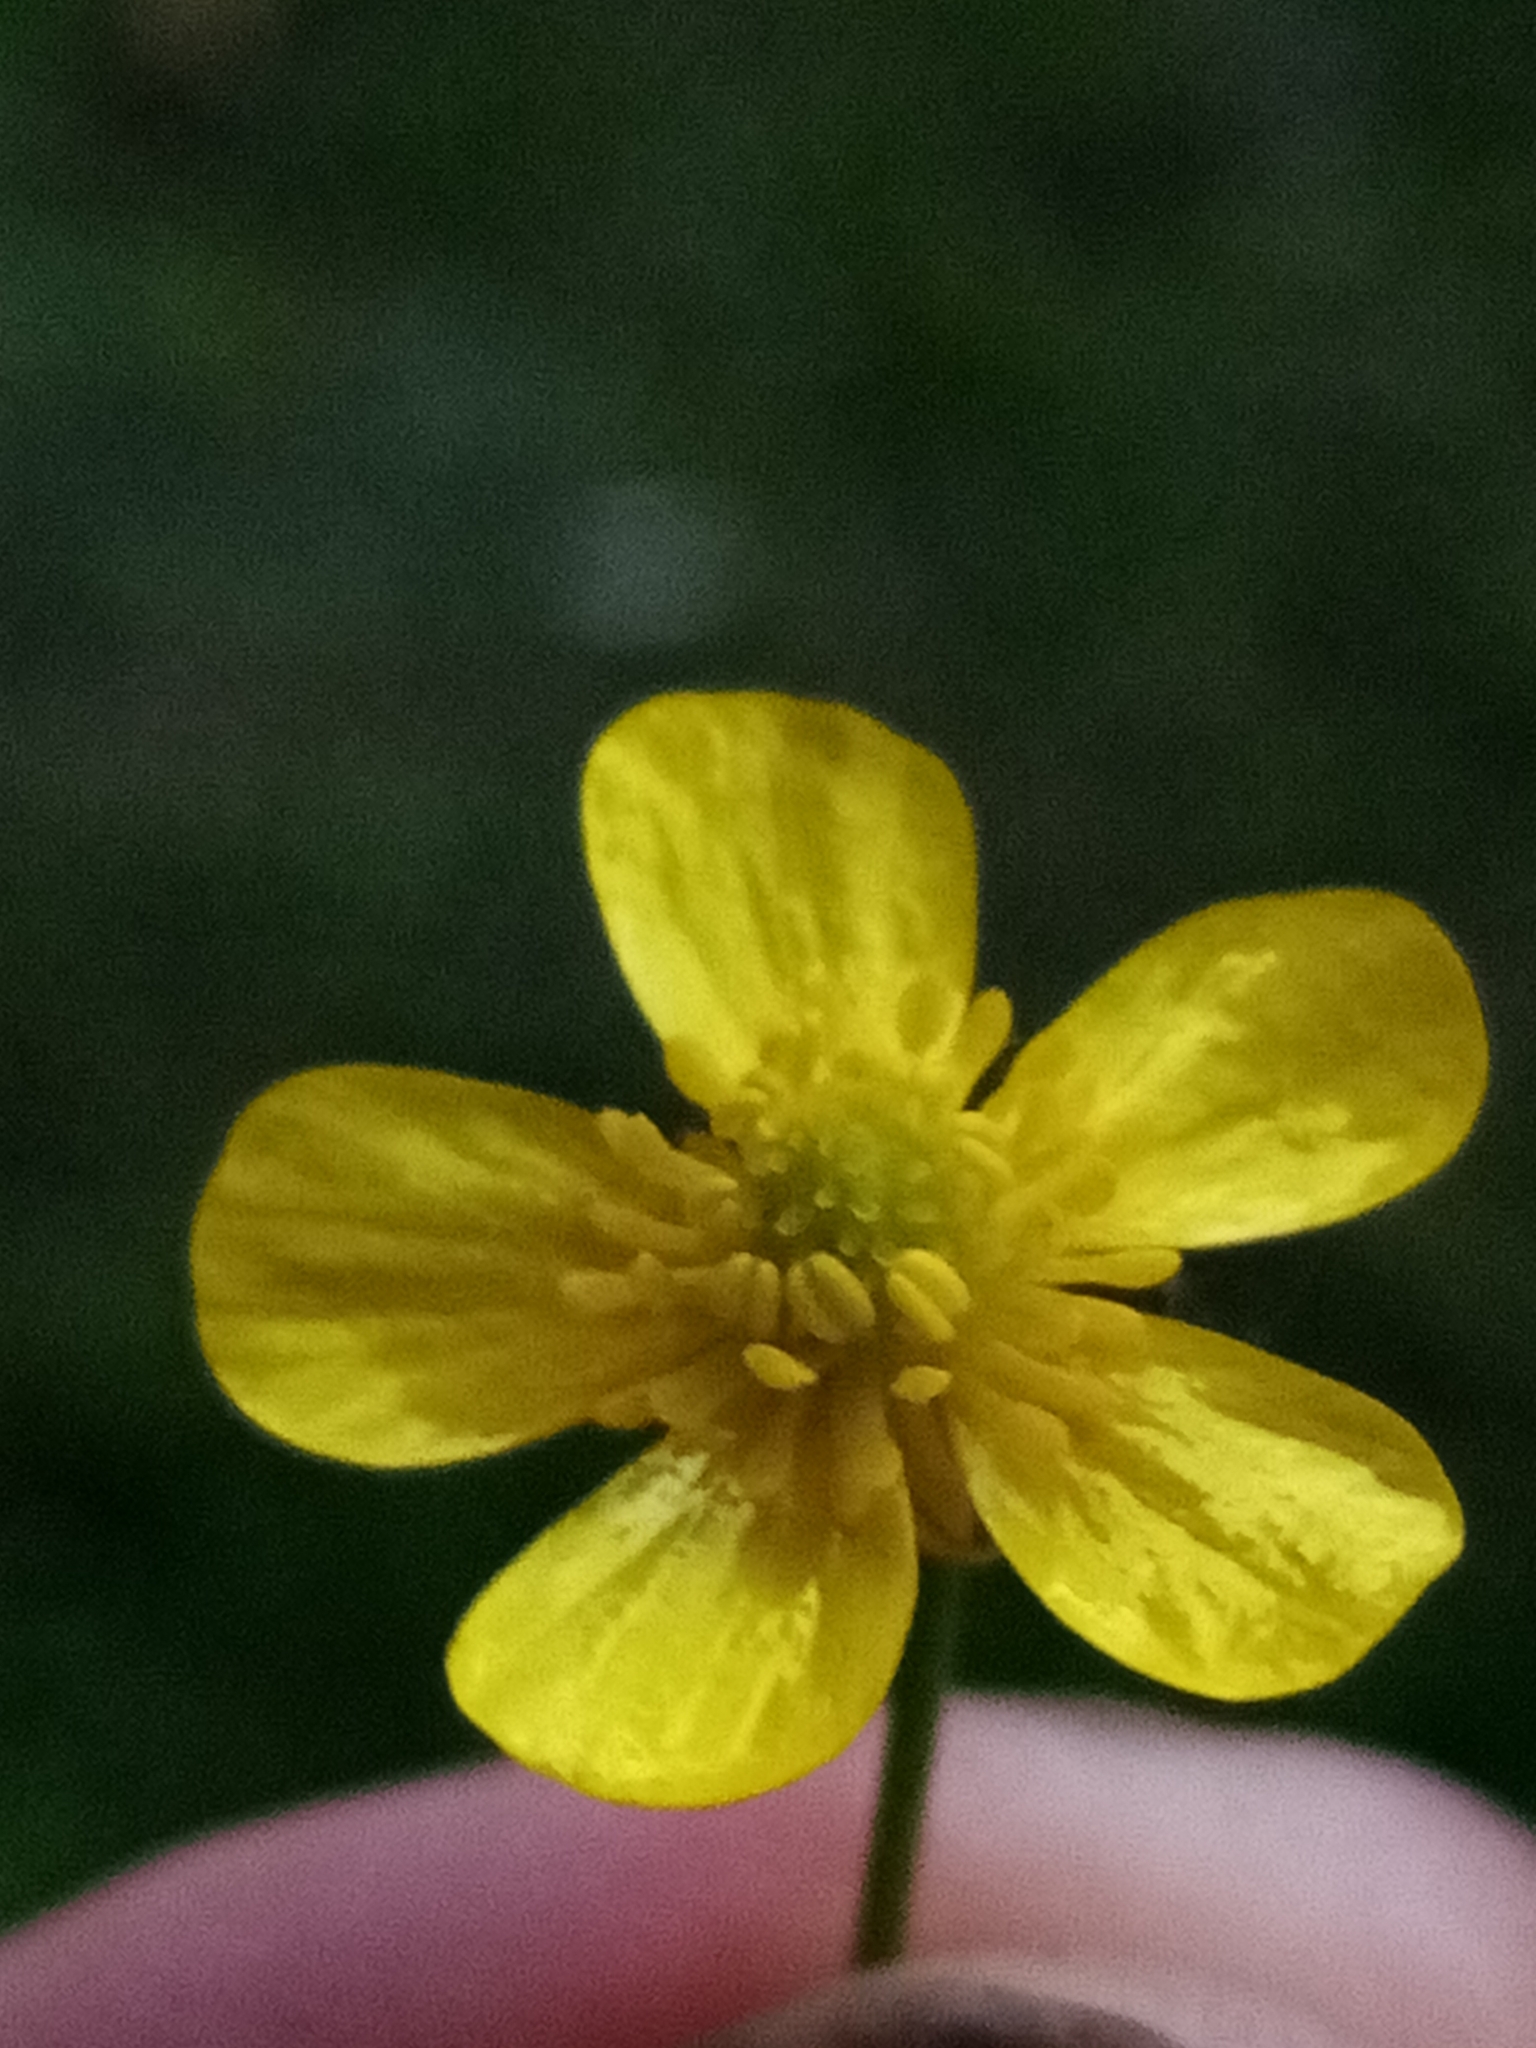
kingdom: Plantae
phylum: Tracheophyta
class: Magnoliopsida
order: Ranunculales
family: Ranunculaceae
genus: Ranunculus
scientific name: Ranunculus flammula
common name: Lesser spearwort
